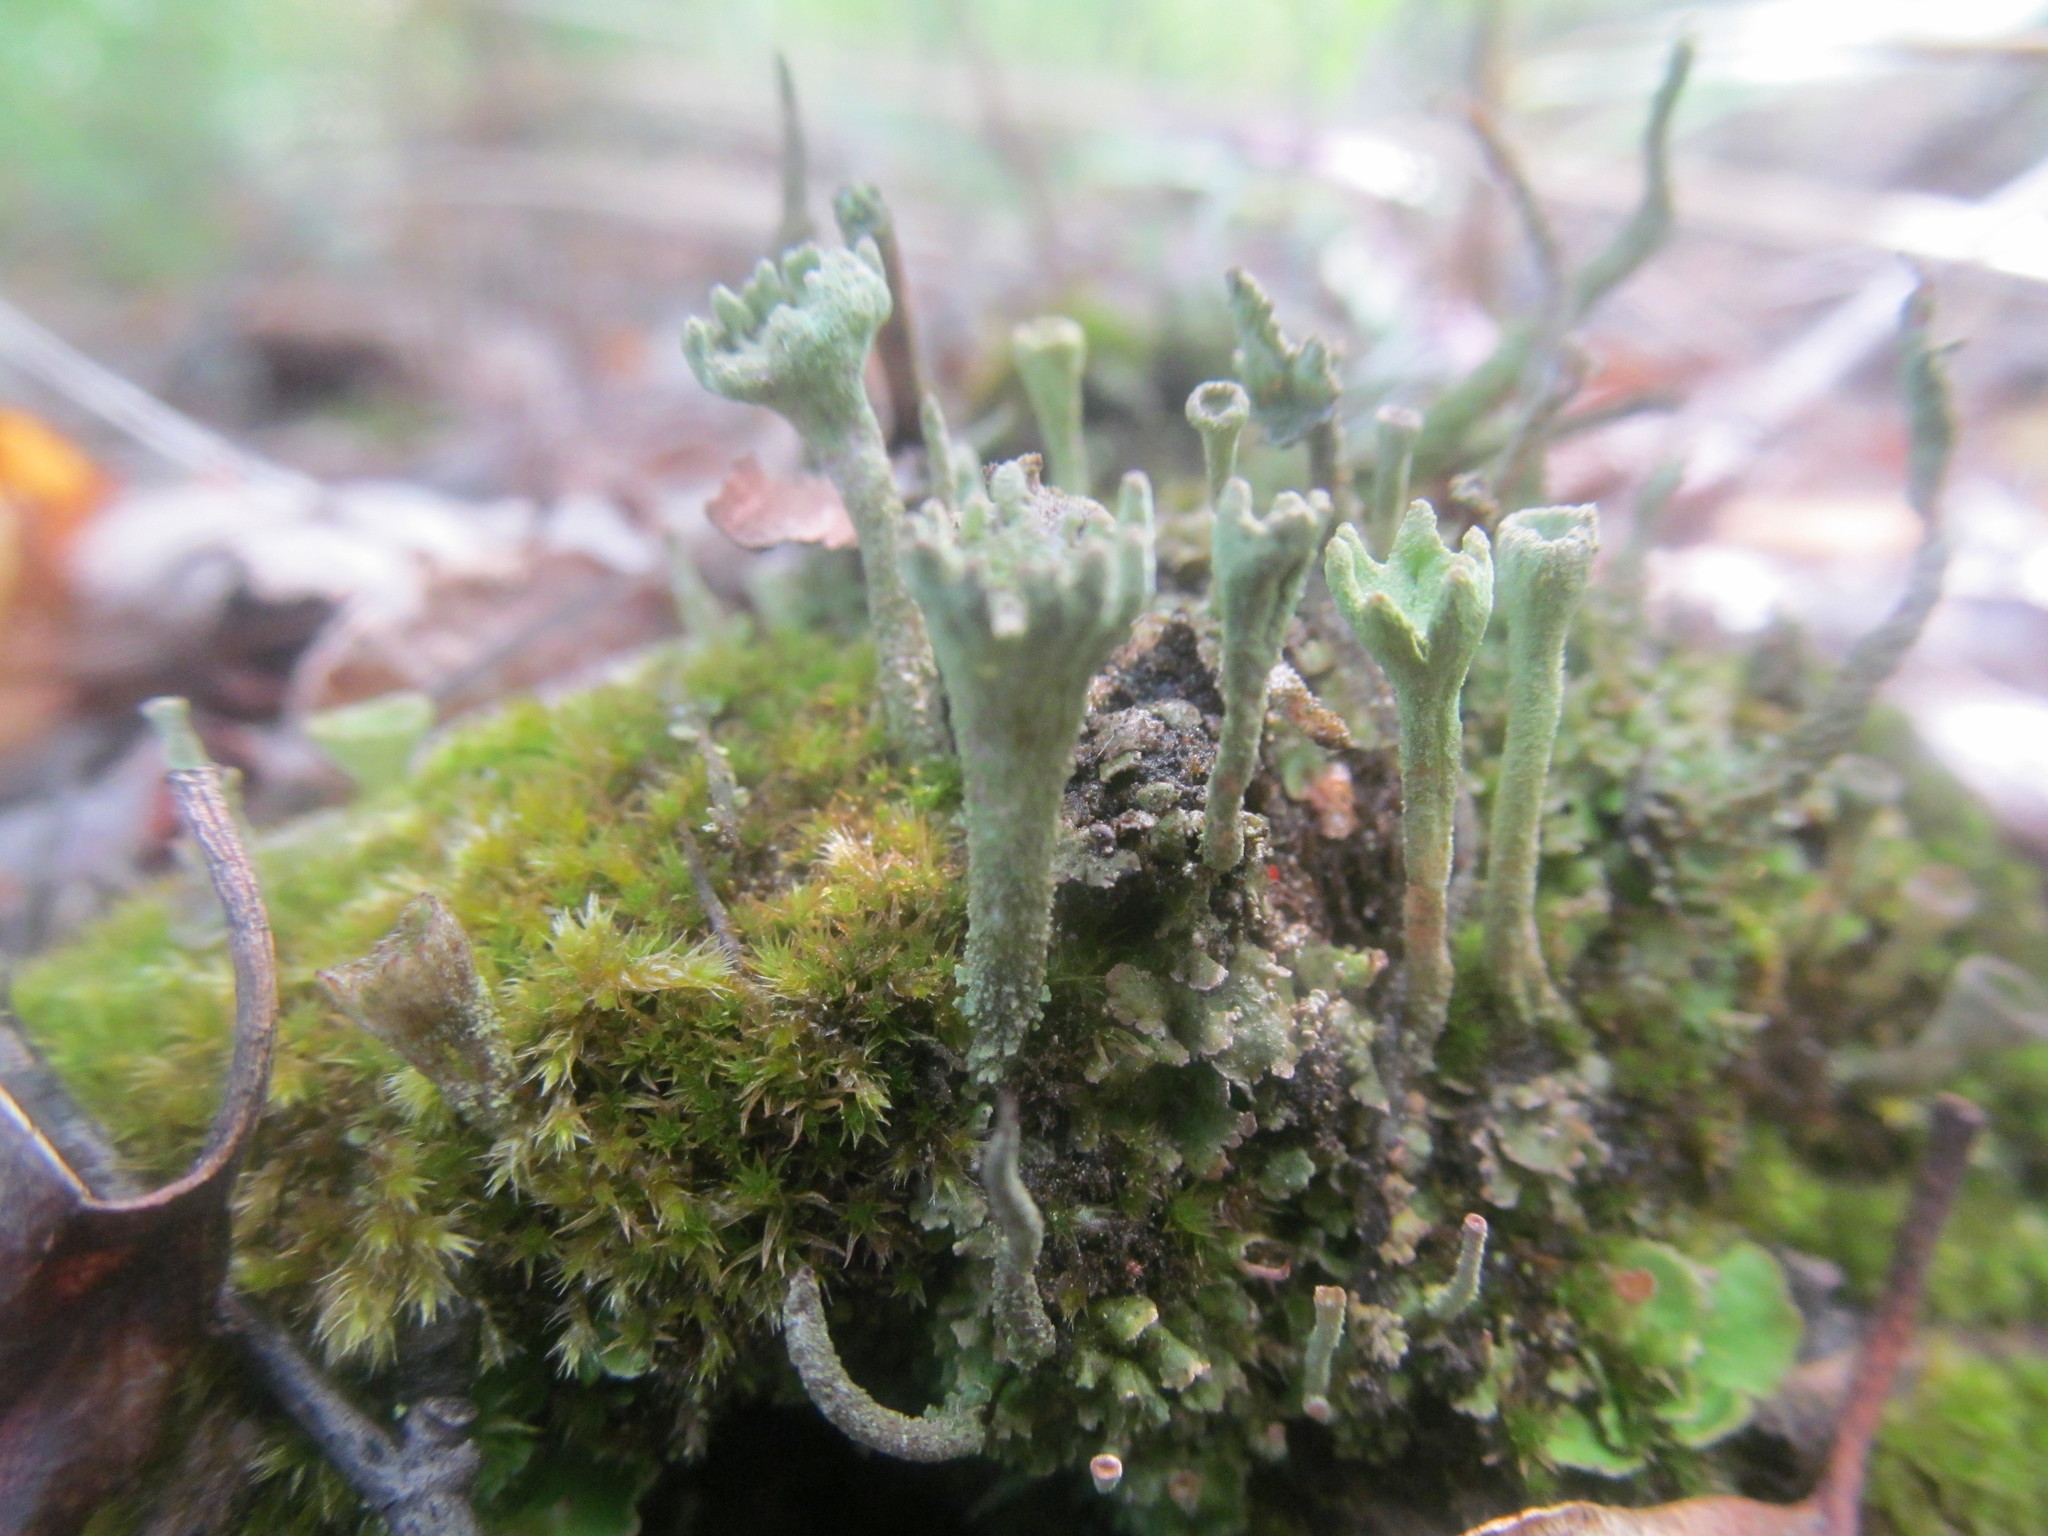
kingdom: Fungi
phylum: Ascomycota
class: Lecanoromycetes
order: Lecanorales
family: Cladoniaceae
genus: Cladonia
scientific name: Cladonia fimbriata
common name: Powdered trumpet lichen
